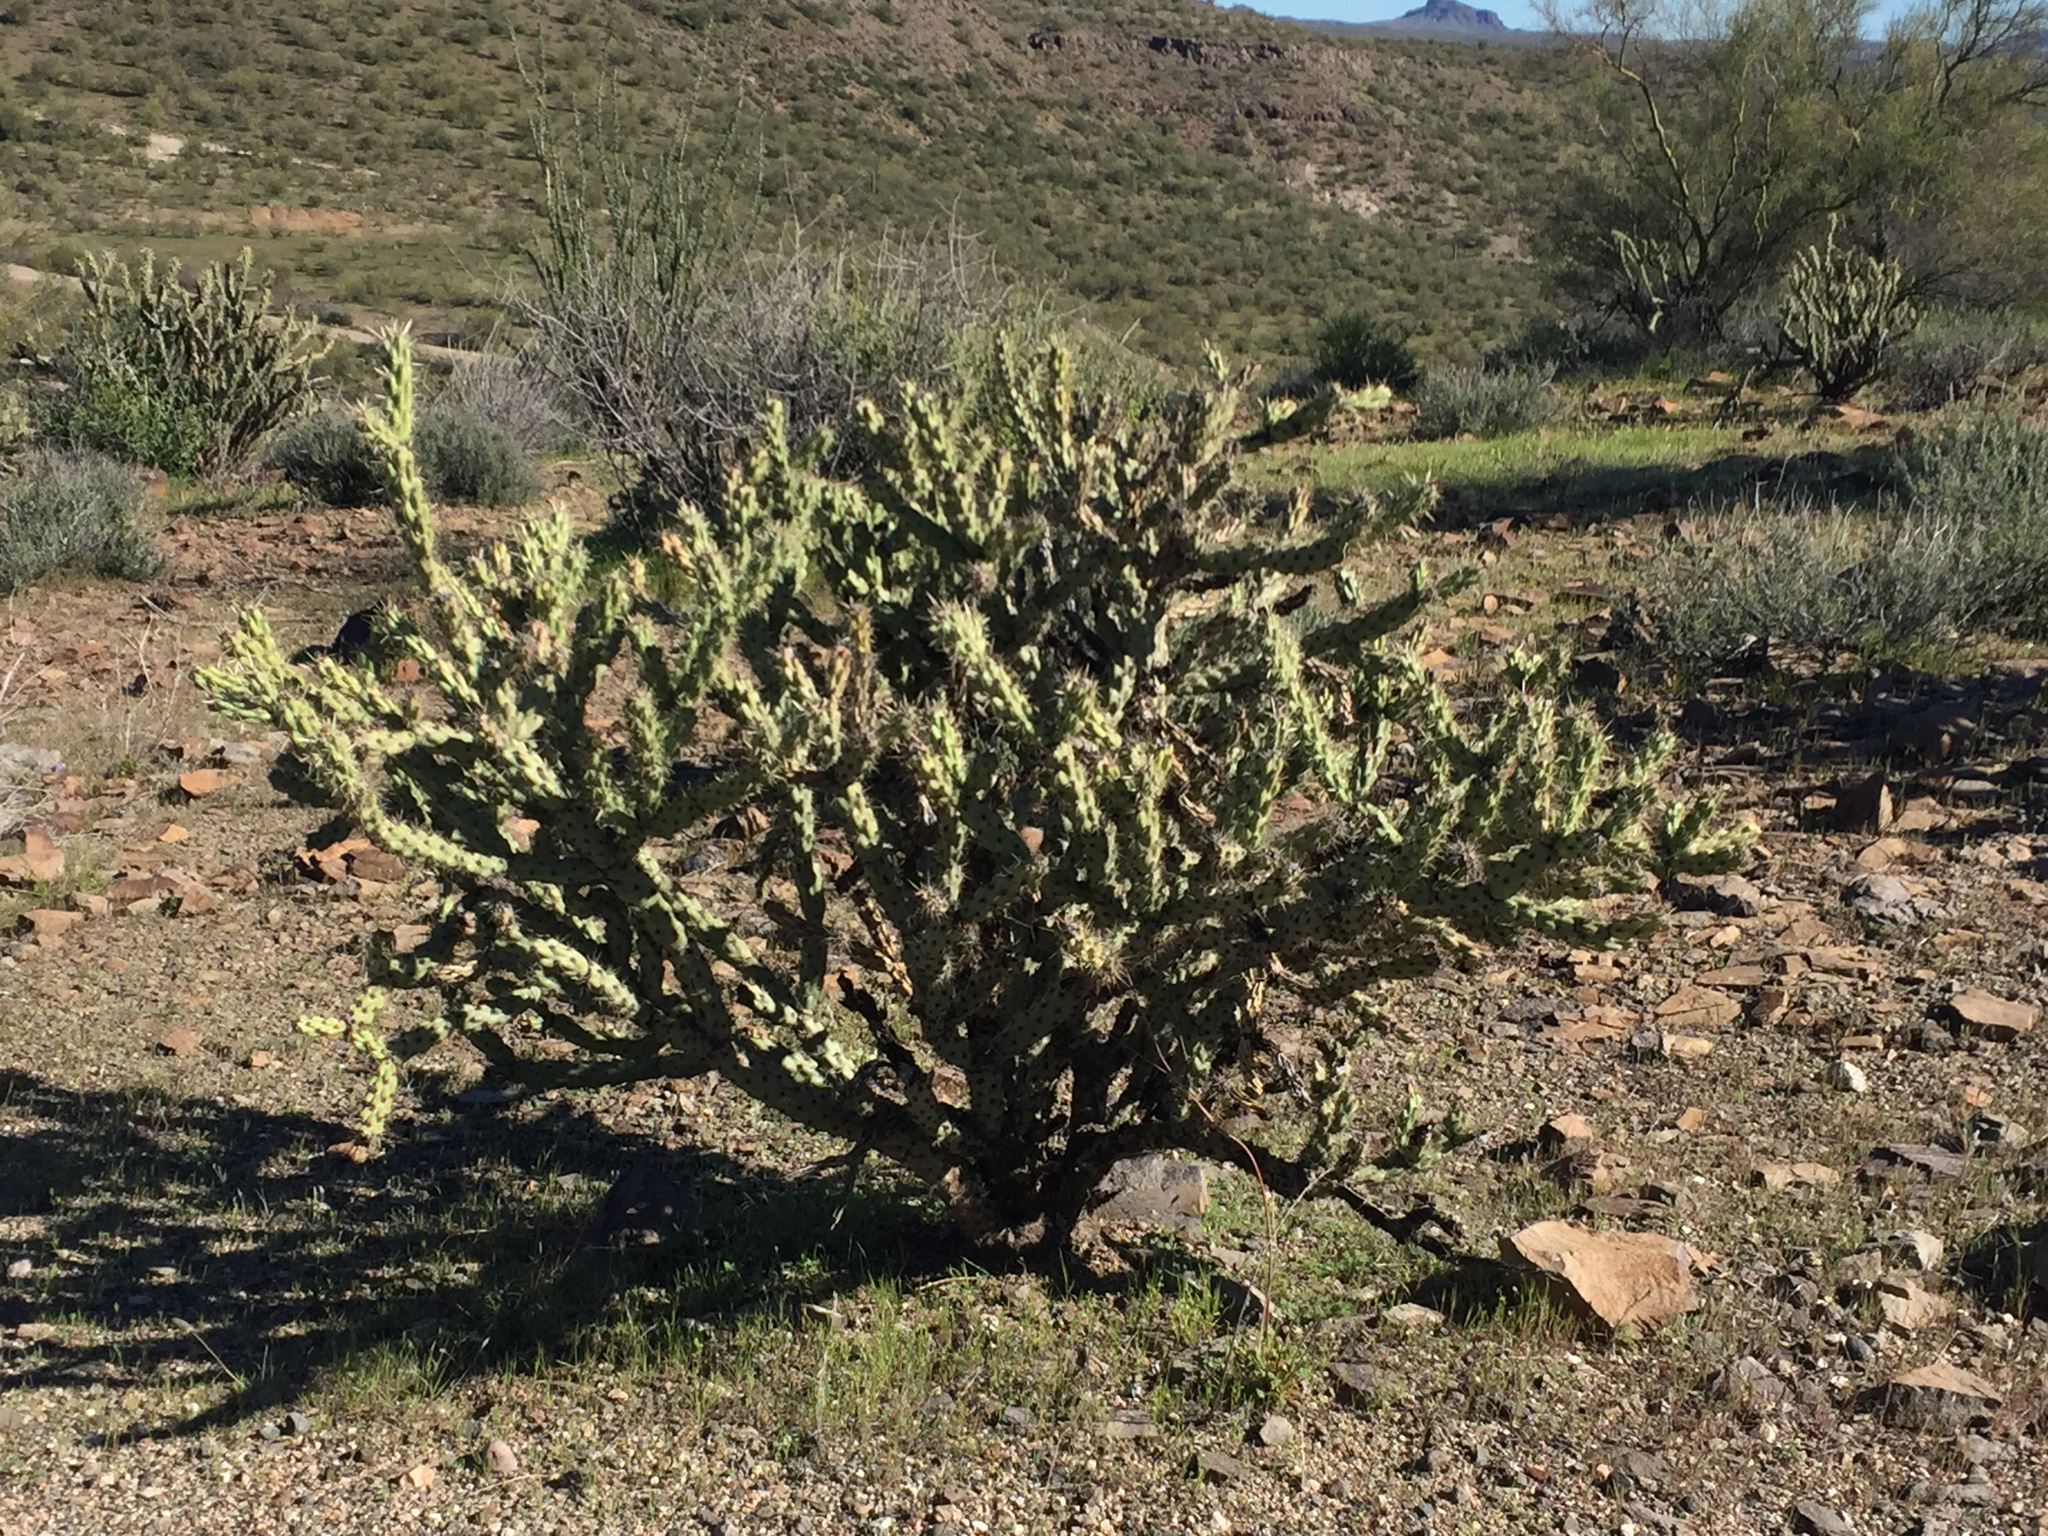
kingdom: Plantae
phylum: Tracheophyta
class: Magnoliopsida
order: Caryophyllales
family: Cactaceae
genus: Cylindropuntia
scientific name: Cylindropuntia acanthocarpa
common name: Buckhorn cholla
